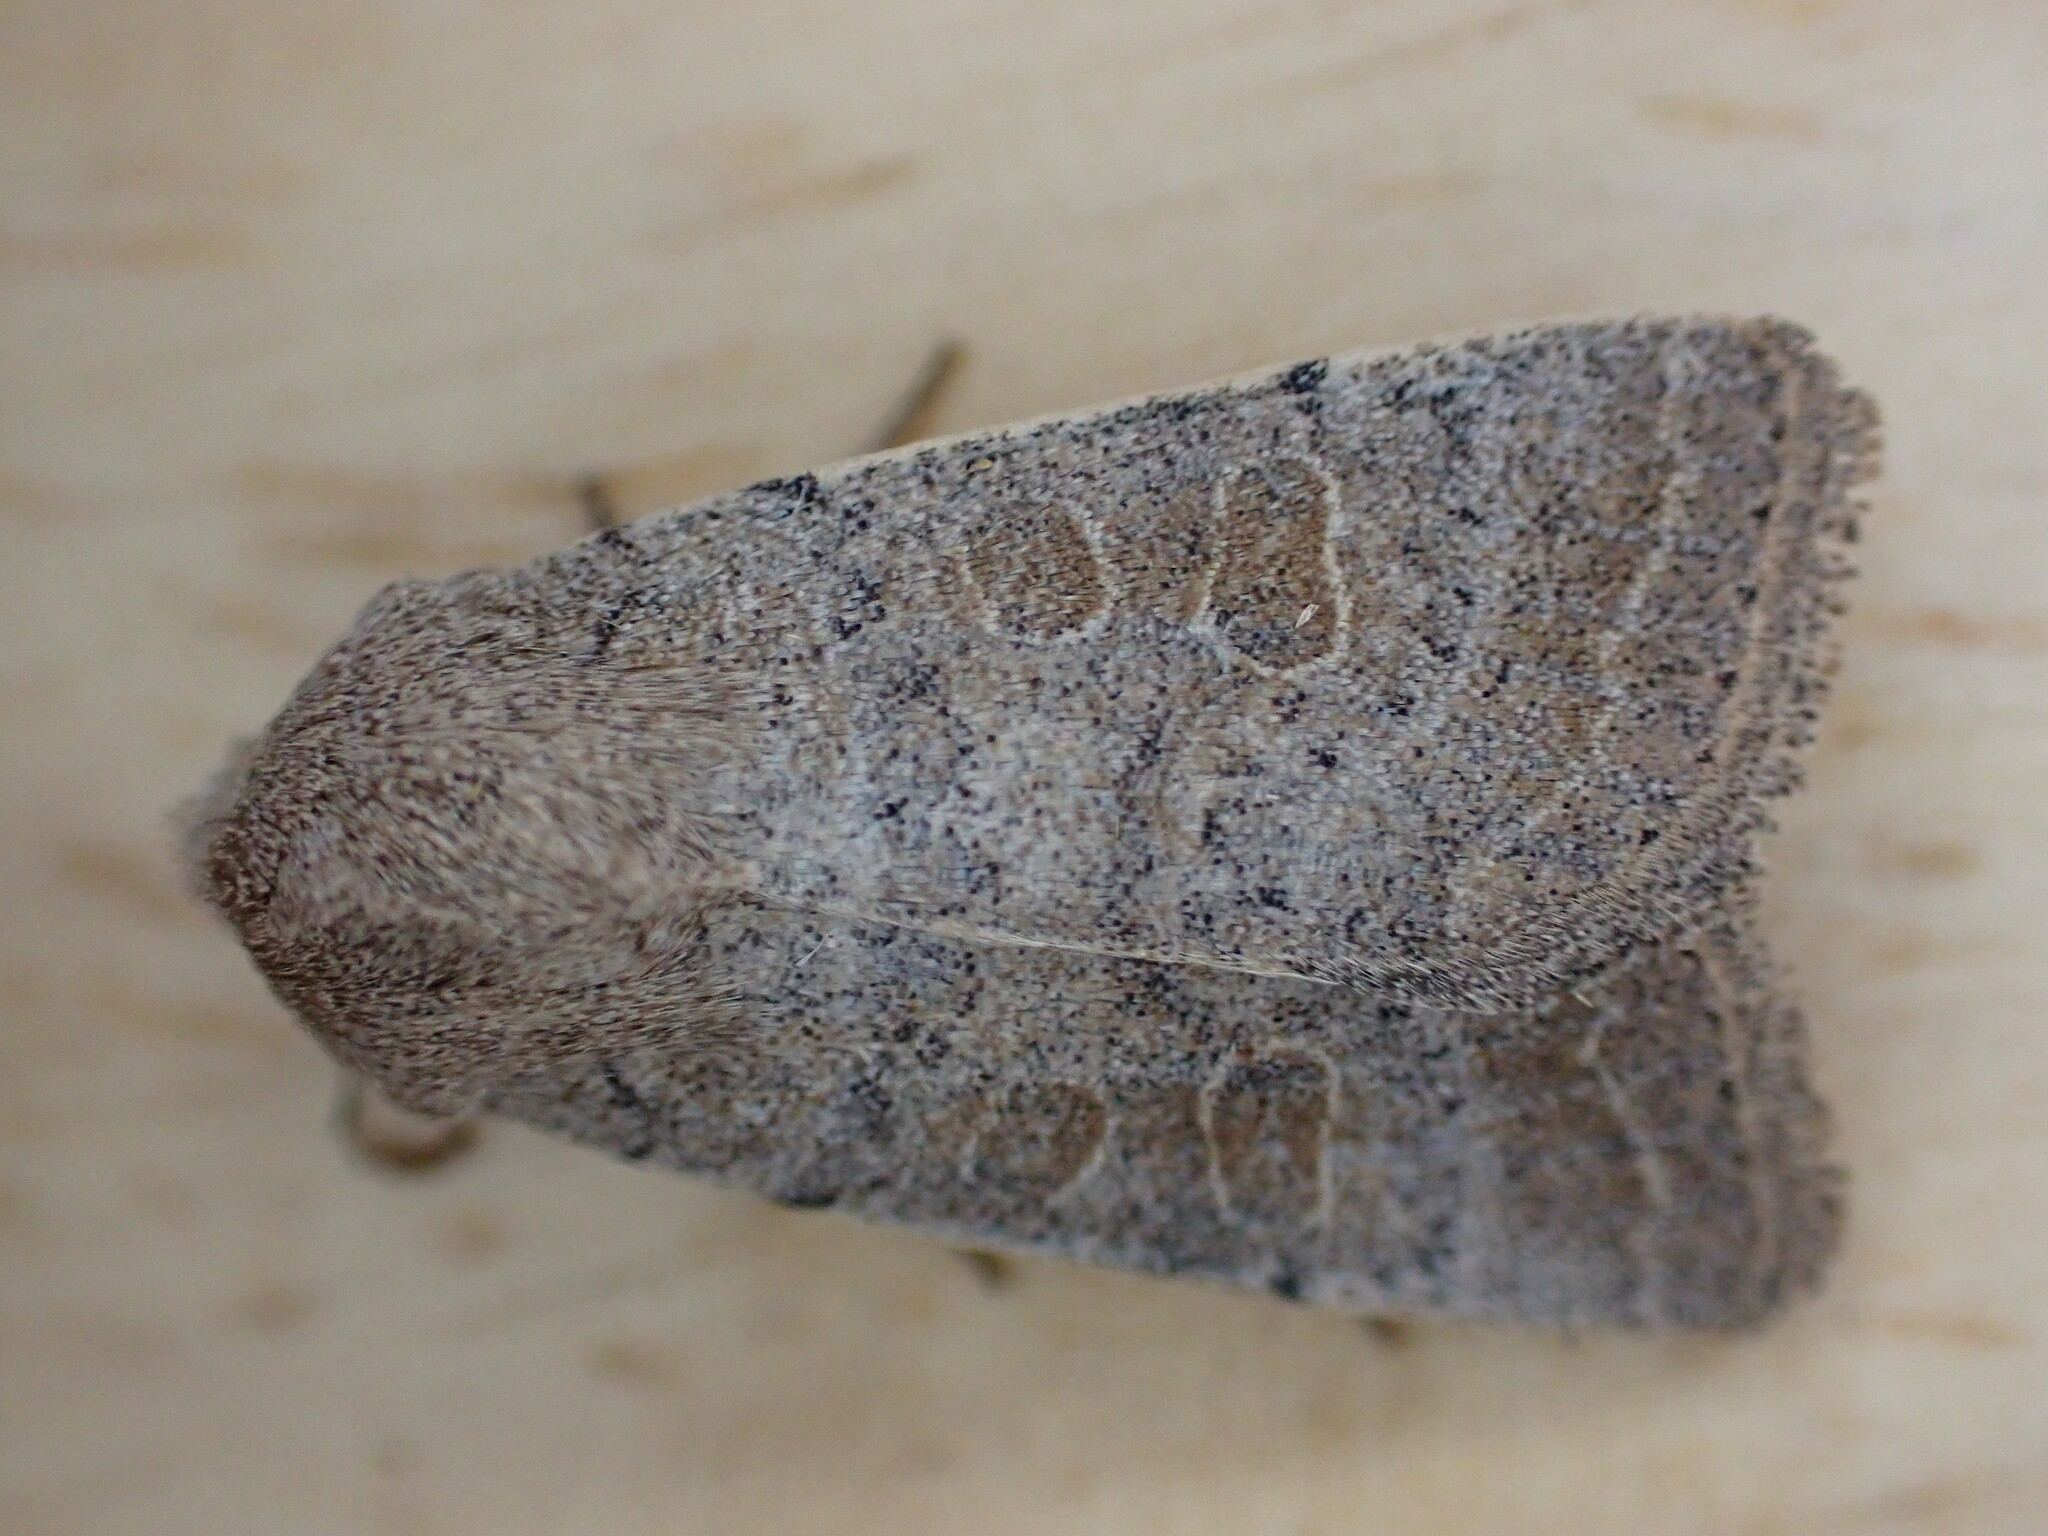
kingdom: Animalia
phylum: Arthropoda
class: Insecta
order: Lepidoptera
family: Noctuidae
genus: Hoplodrina
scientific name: Hoplodrina ambigua
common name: Vine's rustic
